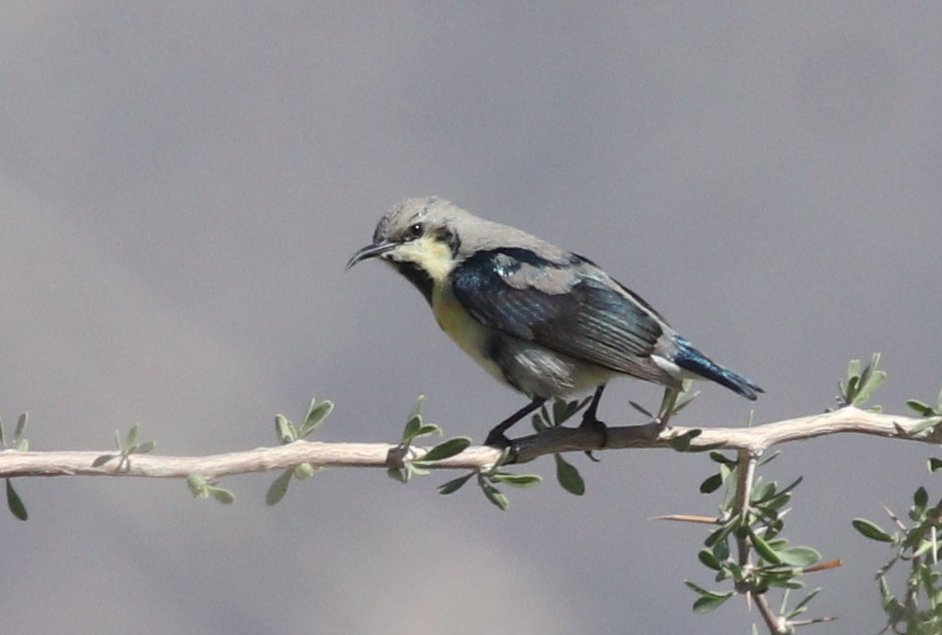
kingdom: Animalia
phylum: Chordata
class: Aves
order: Passeriformes
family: Nectariniidae
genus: Cinnyris
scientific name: Cinnyris asiaticus
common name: Purple sunbird
